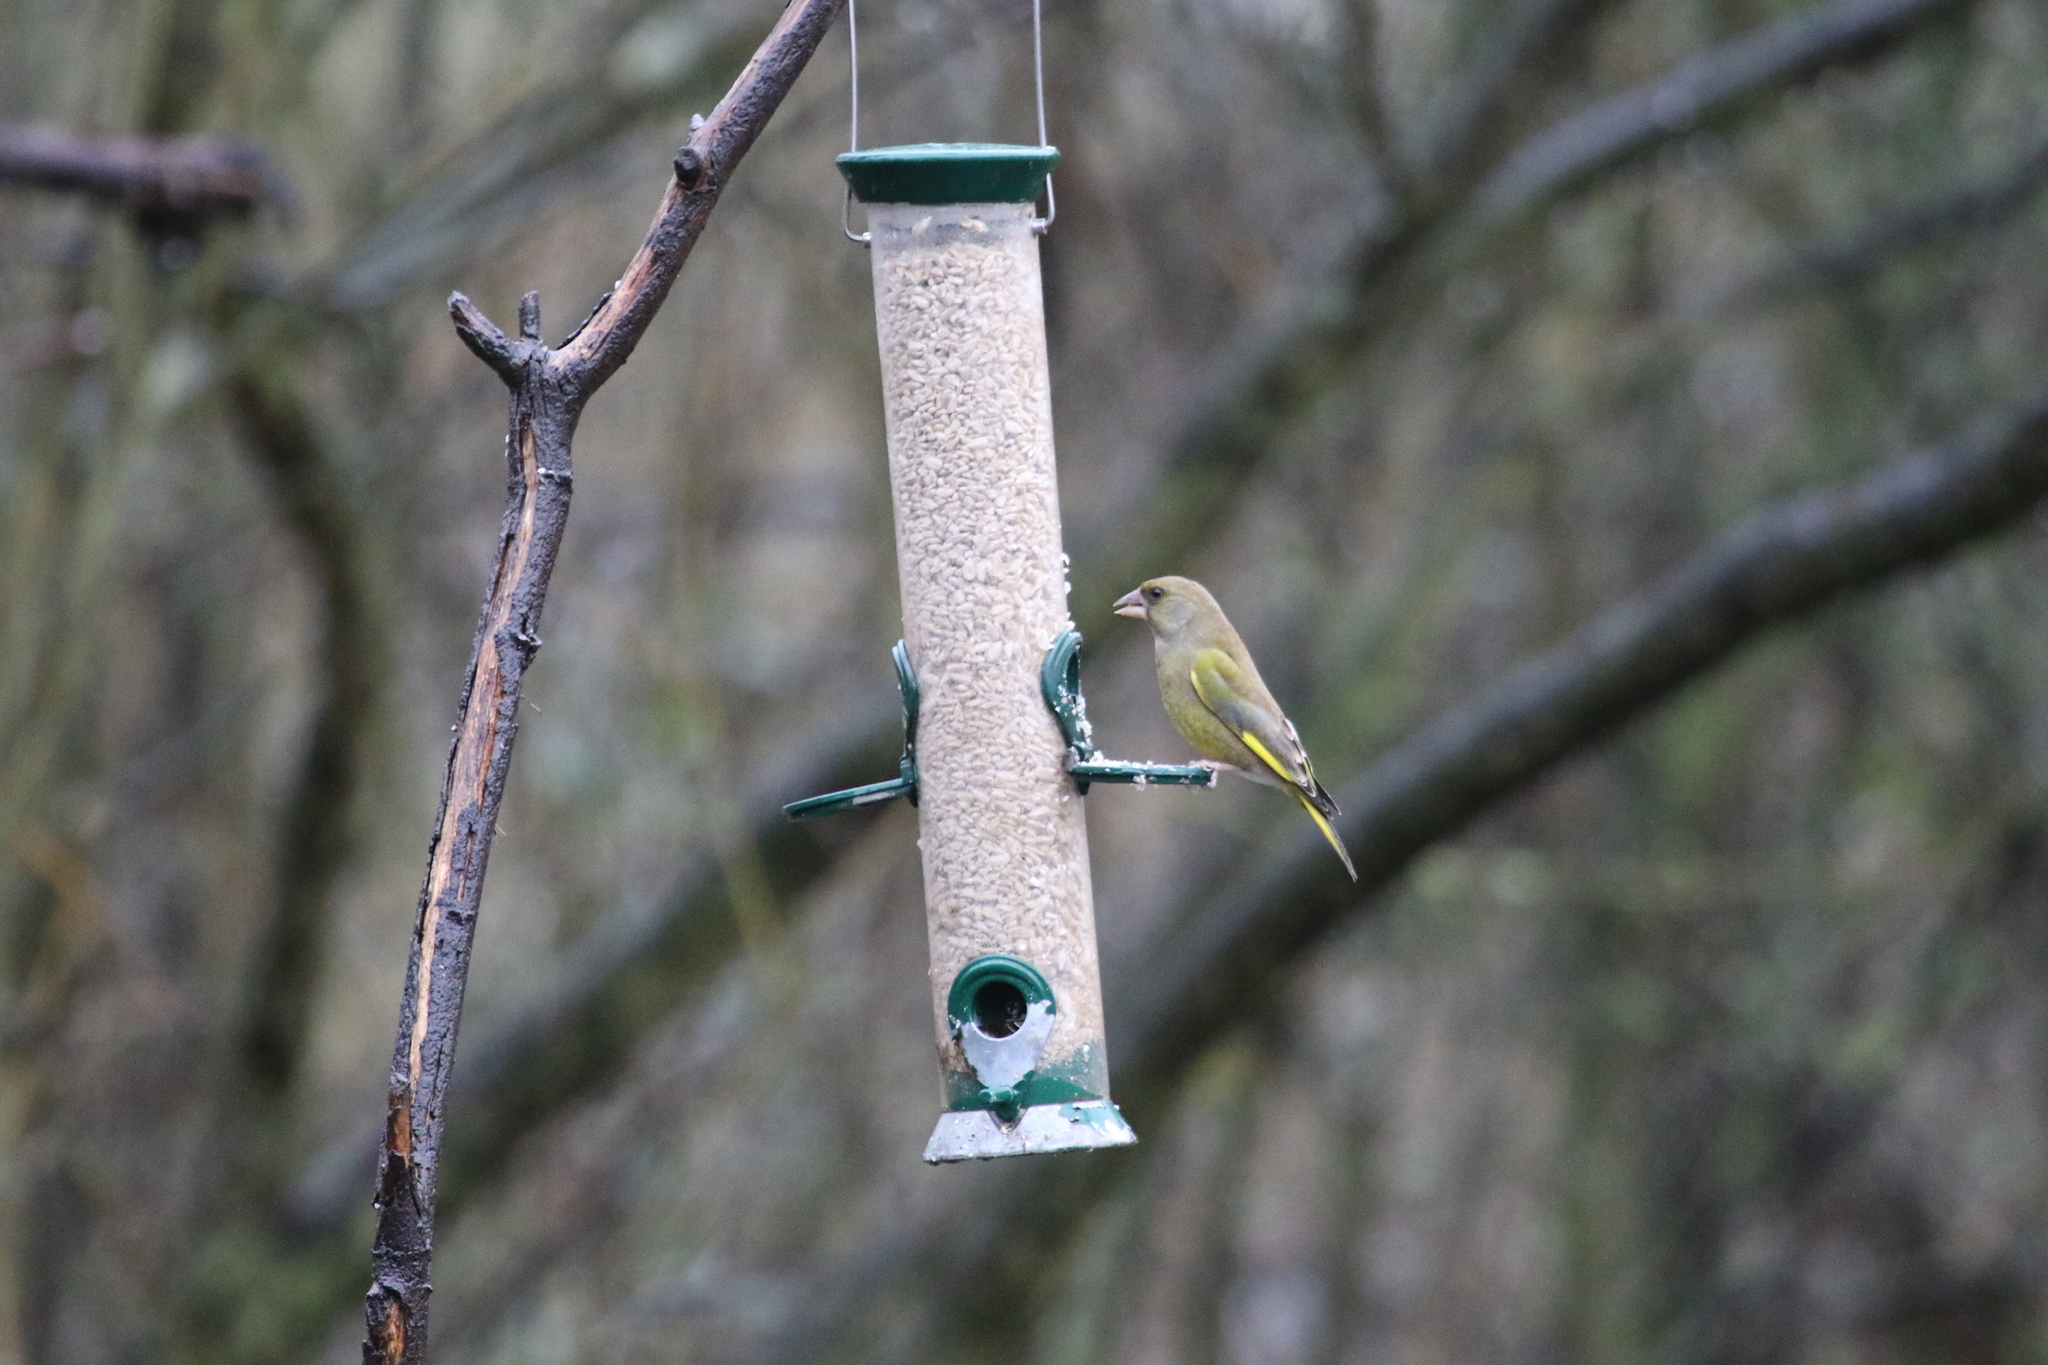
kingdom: Plantae
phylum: Tracheophyta
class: Liliopsida
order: Poales
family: Poaceae
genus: Chloris
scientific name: Chloris chloris
